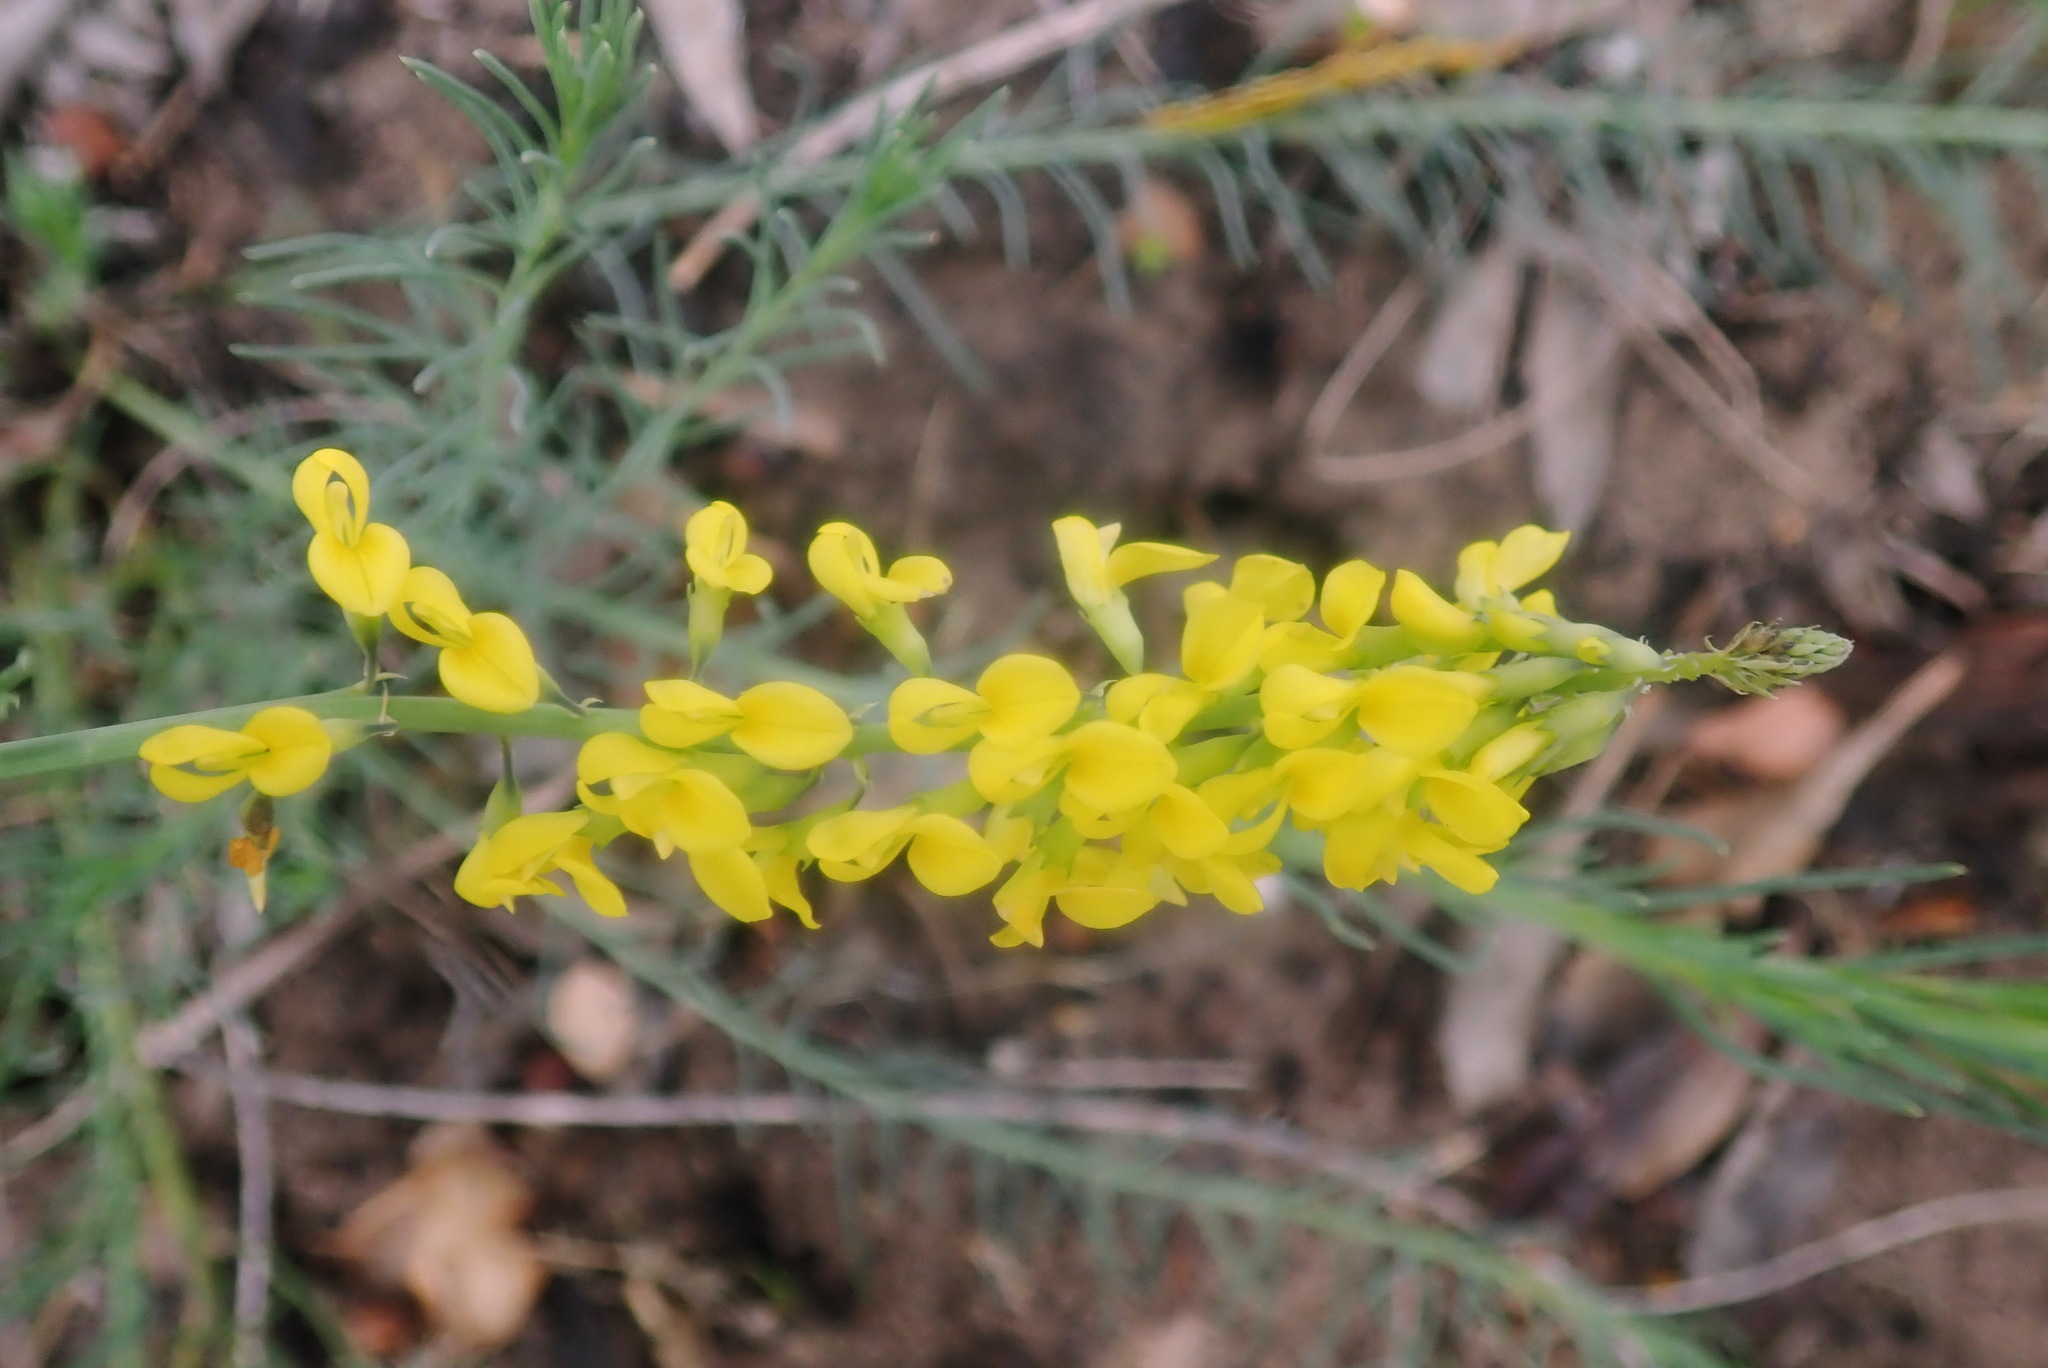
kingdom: Plantae
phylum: Tracheophyta
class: Magnoliopsida
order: Fabales
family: Fabaceae
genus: Lebeckia
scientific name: Lebeckia gracilis
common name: Slender ganna
